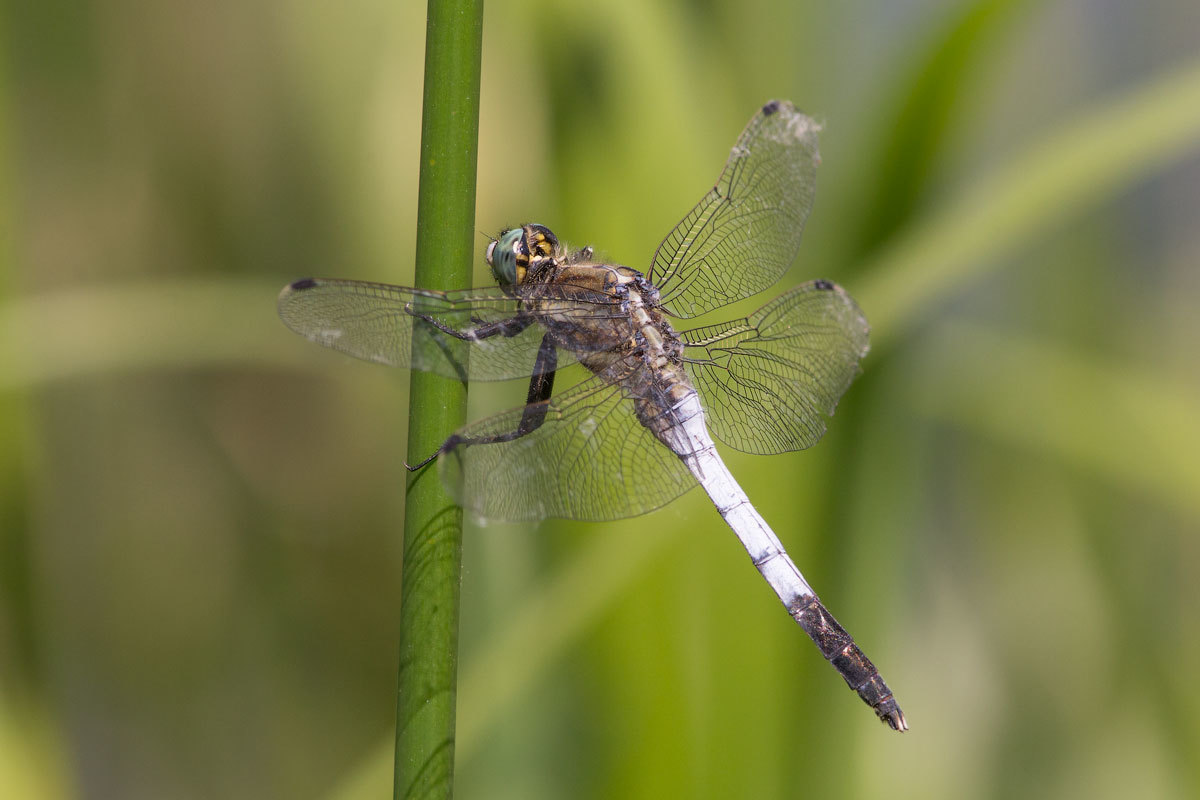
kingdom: Animalia
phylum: Arthropoda
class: Insecta
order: Odonata
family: Libellulidae
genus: Orthetrum
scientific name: Orthetrum albistylum
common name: White-tailed skimmer
